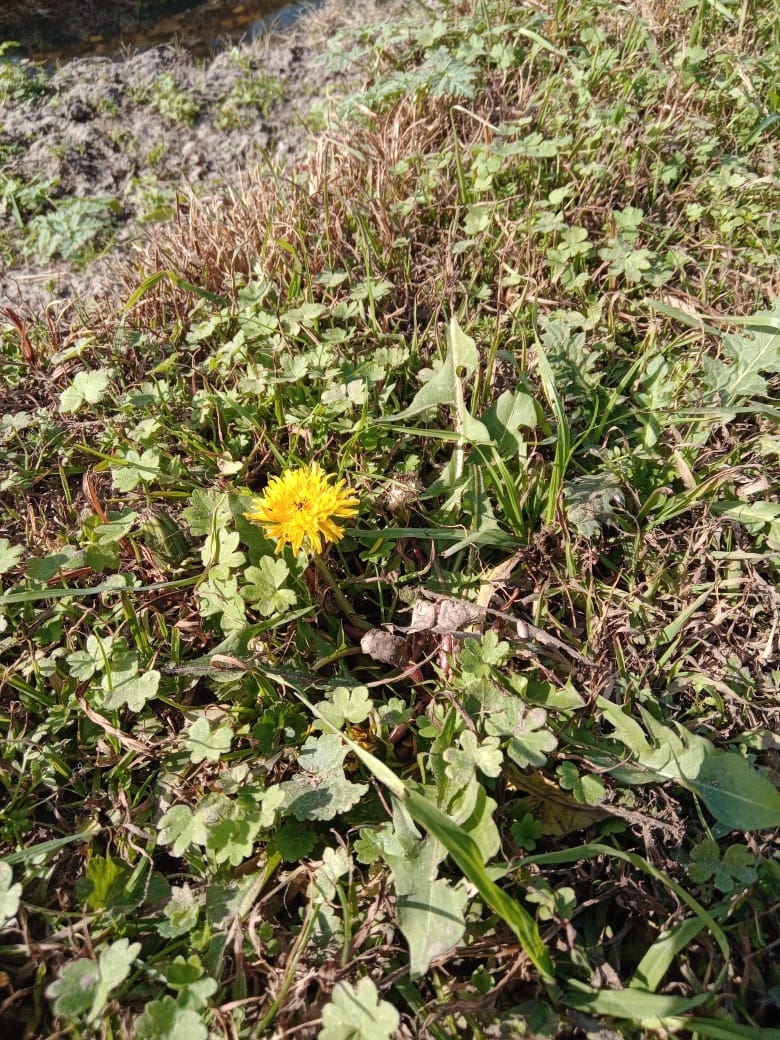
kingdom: Plantae
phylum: Tracheophyta
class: Magnoliopsida
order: Asterales
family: Asteraceae
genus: Taraxacum
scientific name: Taraxacum officinale
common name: Common dandelion
